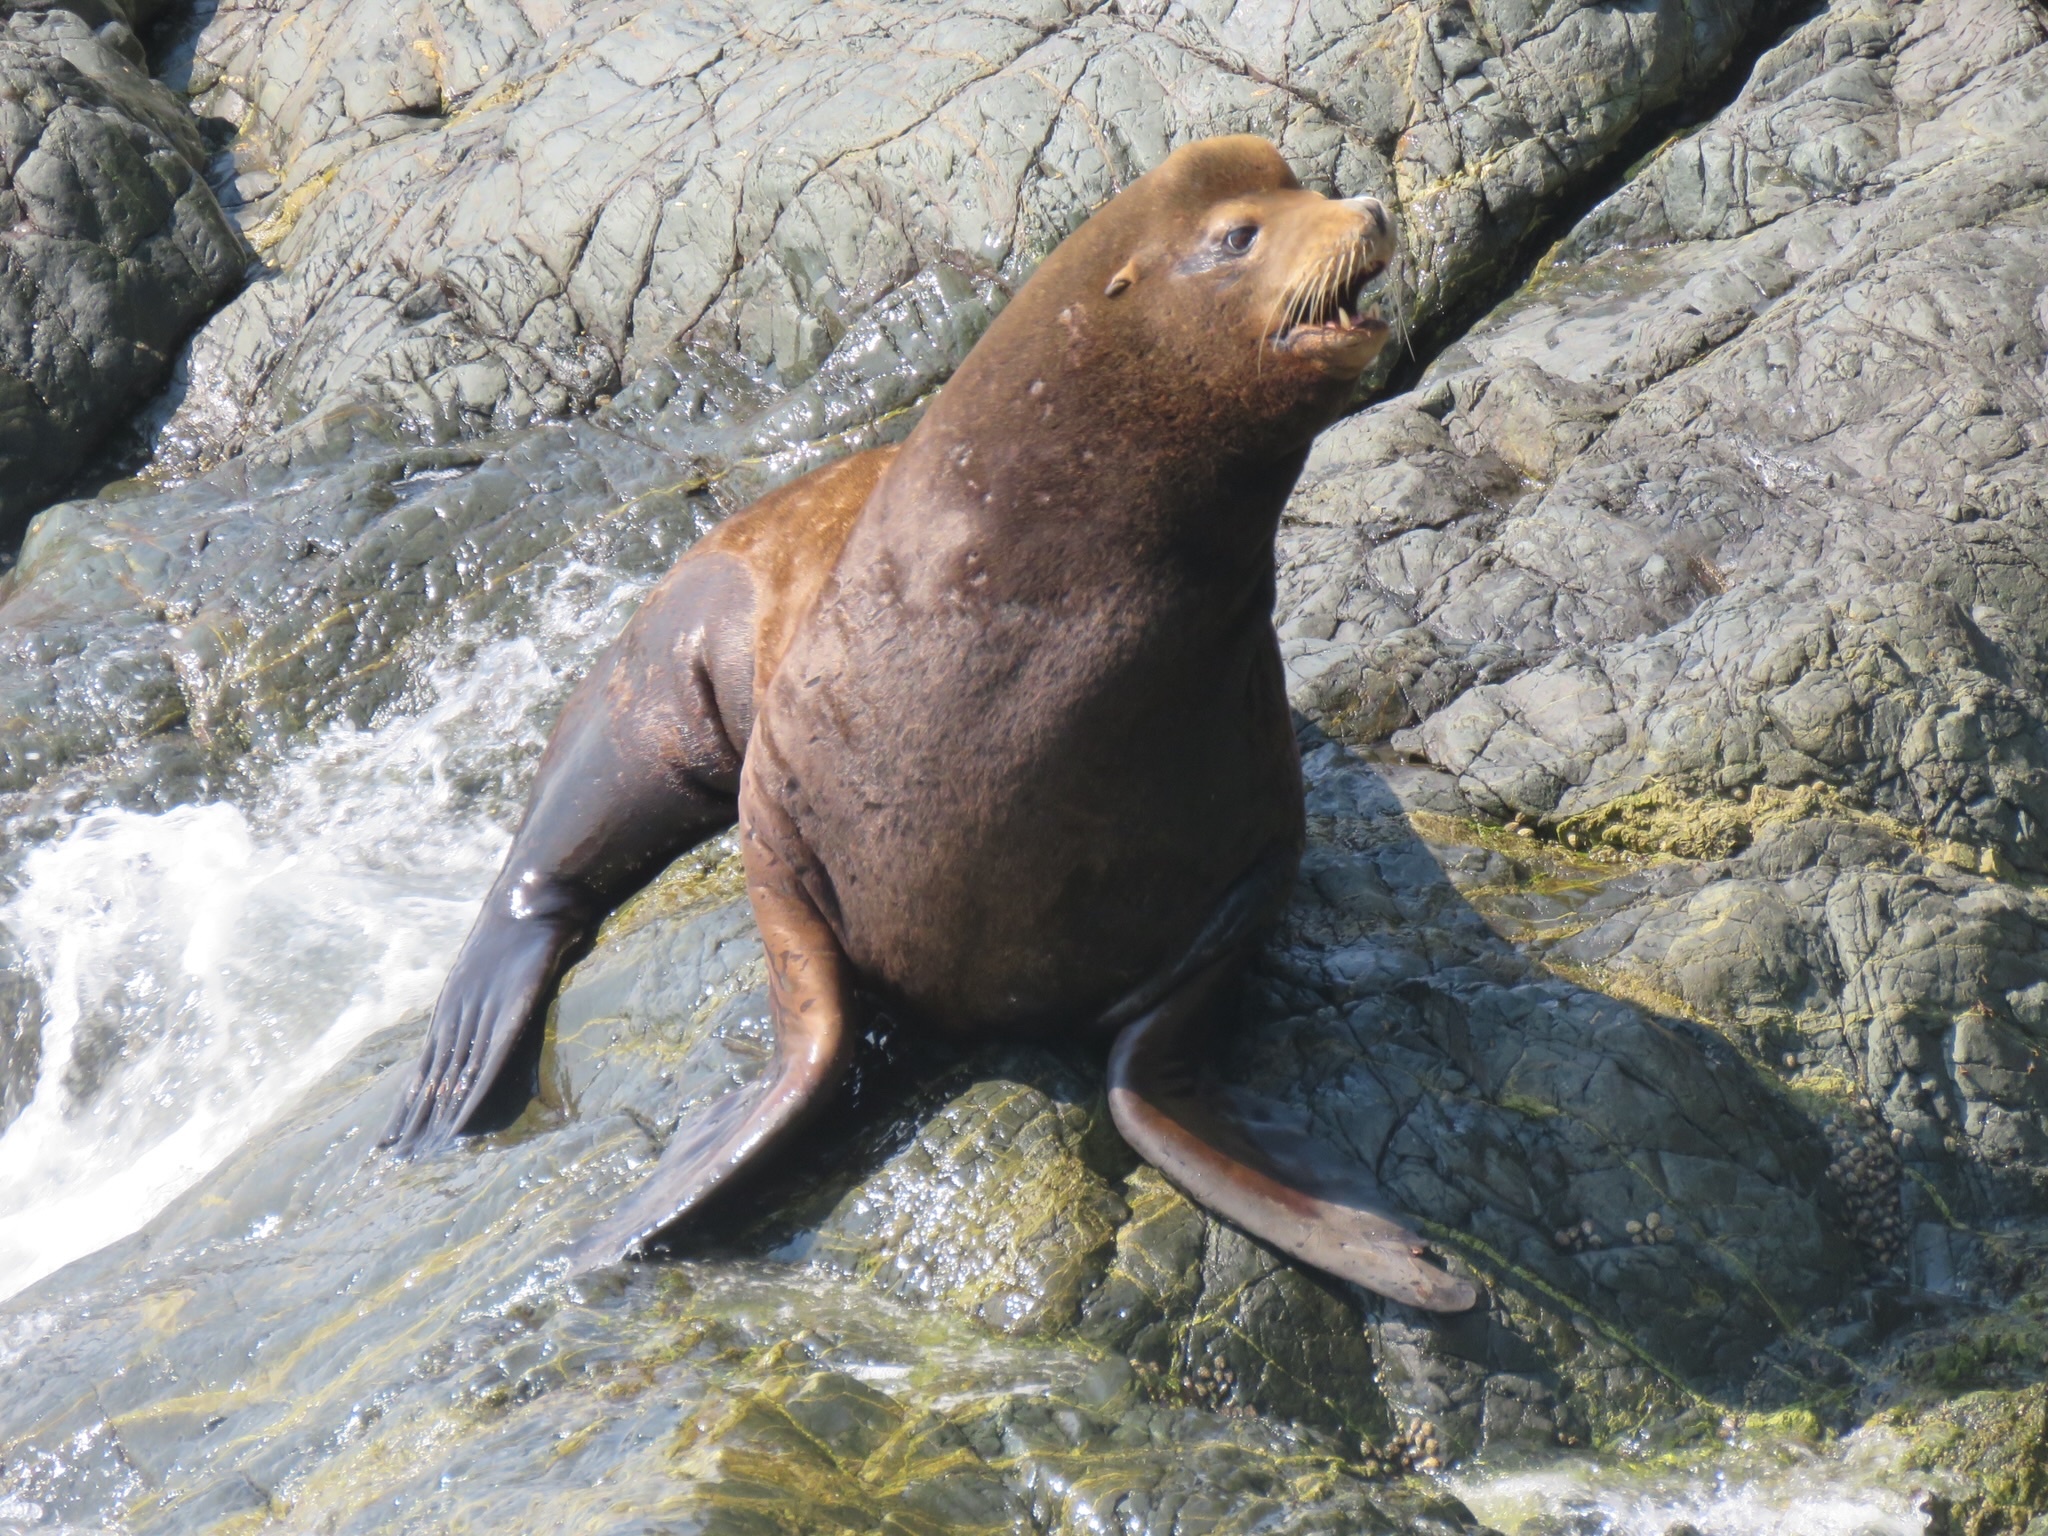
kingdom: Animalia
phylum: Chordata
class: Mammalia
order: Carnivora
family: Otariidae
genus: Zalophus
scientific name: Zalophus californianus
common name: California sea lion
